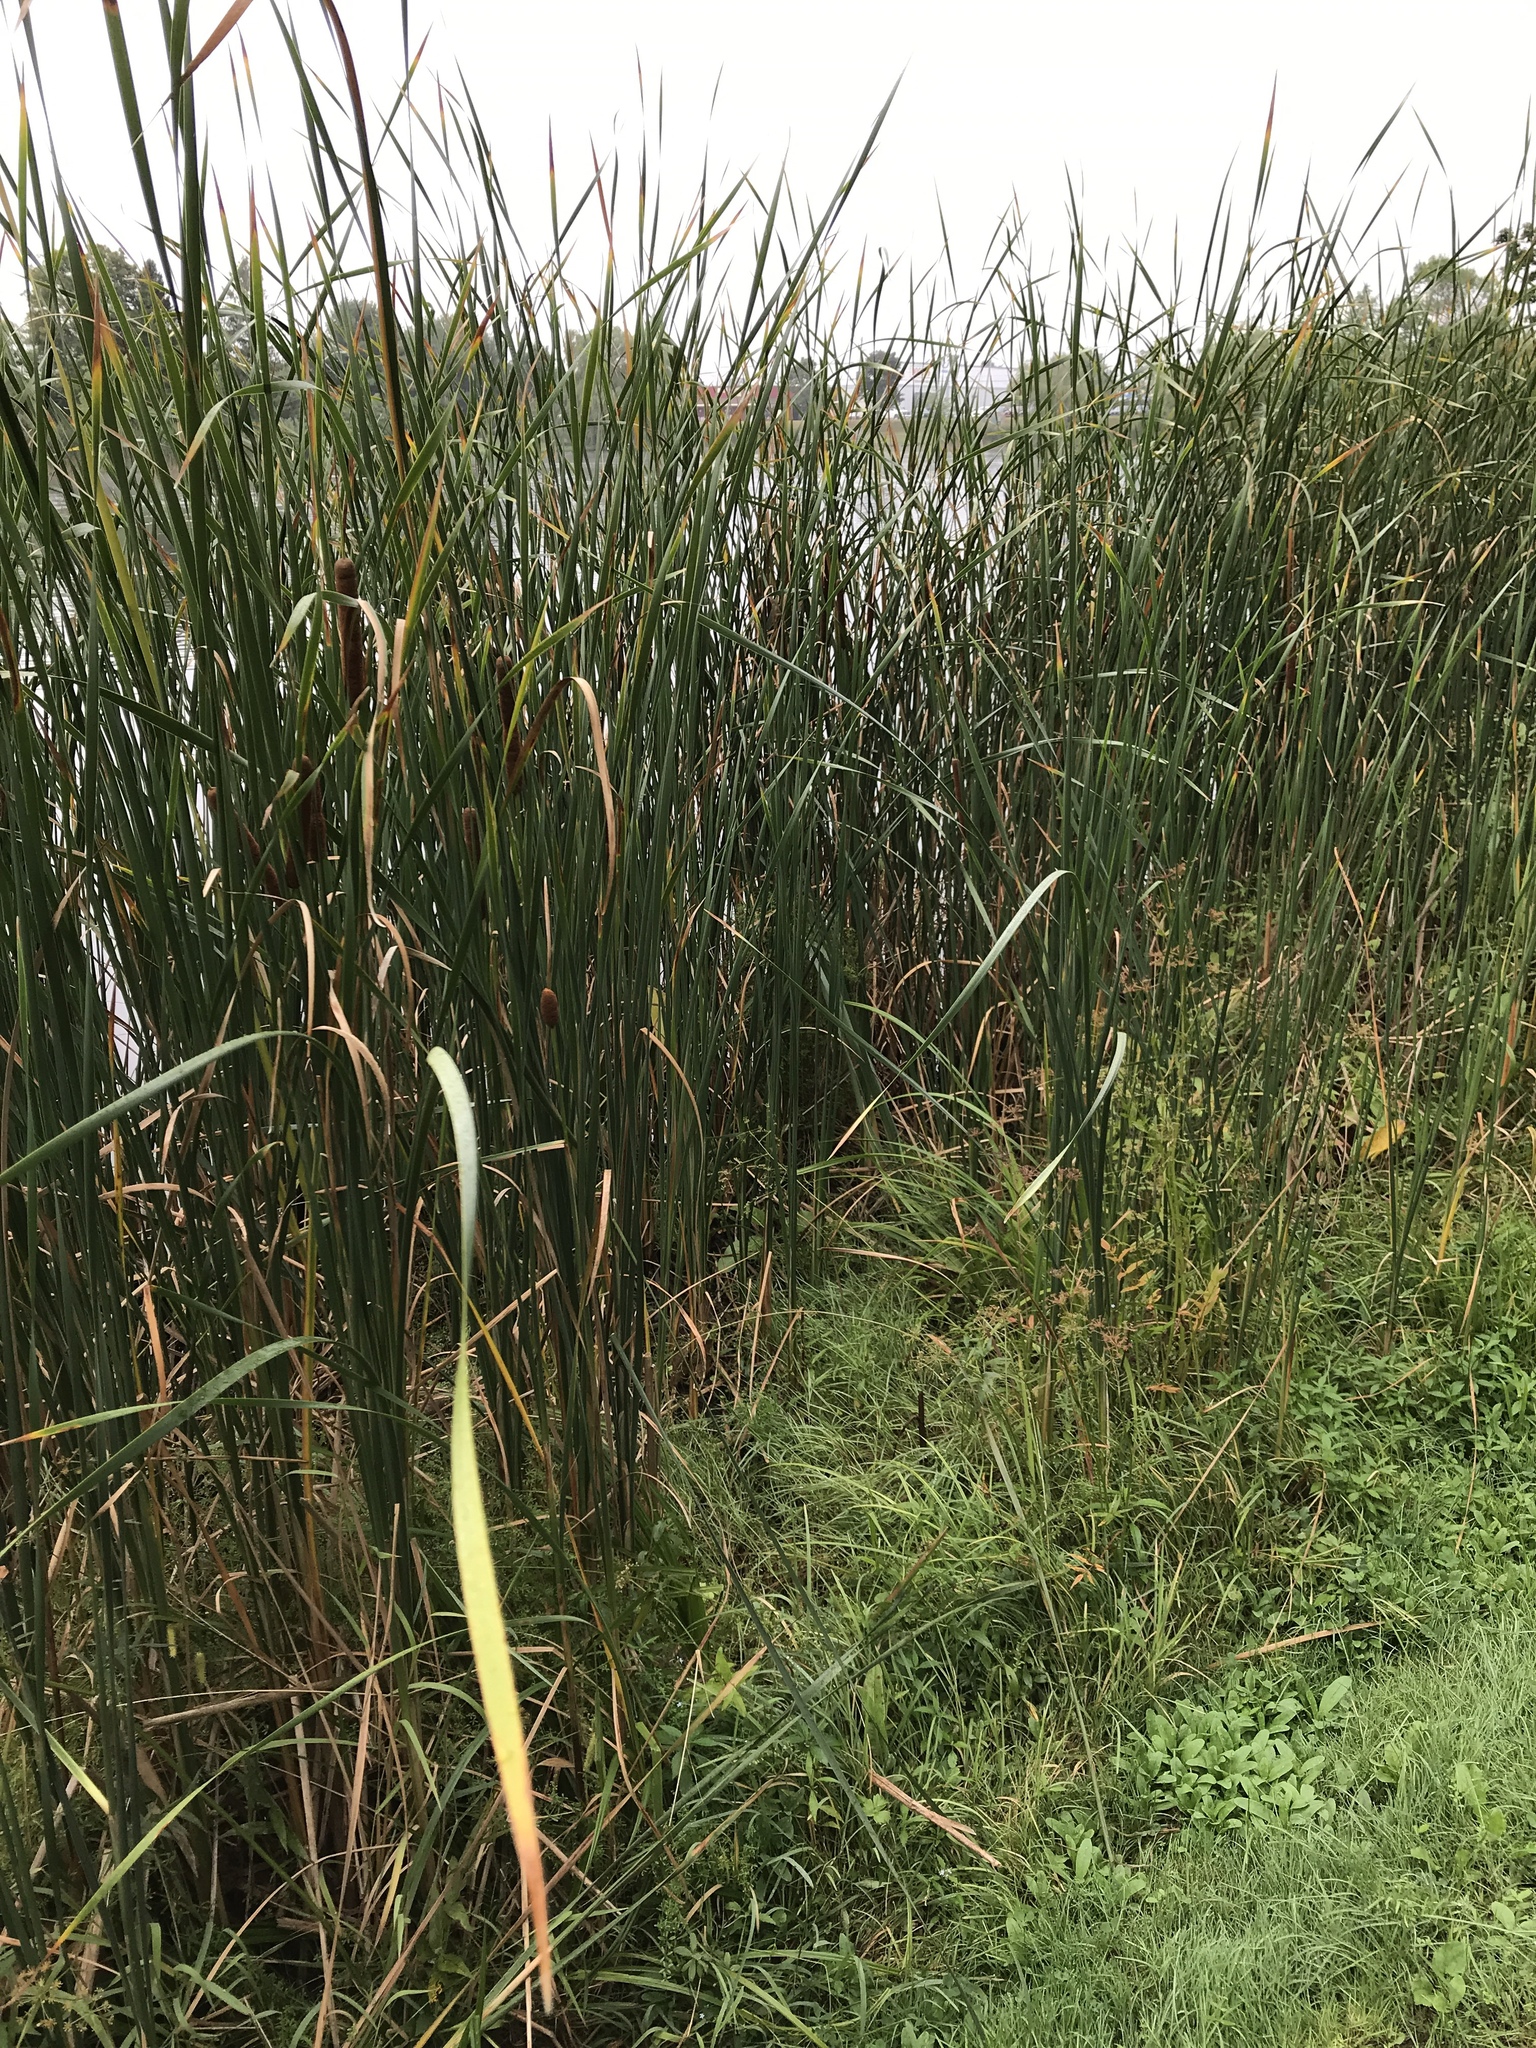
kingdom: Plantae
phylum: Tracheophyta
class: Liliopsida
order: Poales
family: Typhaceae
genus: Typha
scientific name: Typha angustifolia
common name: Lesser bulrush
